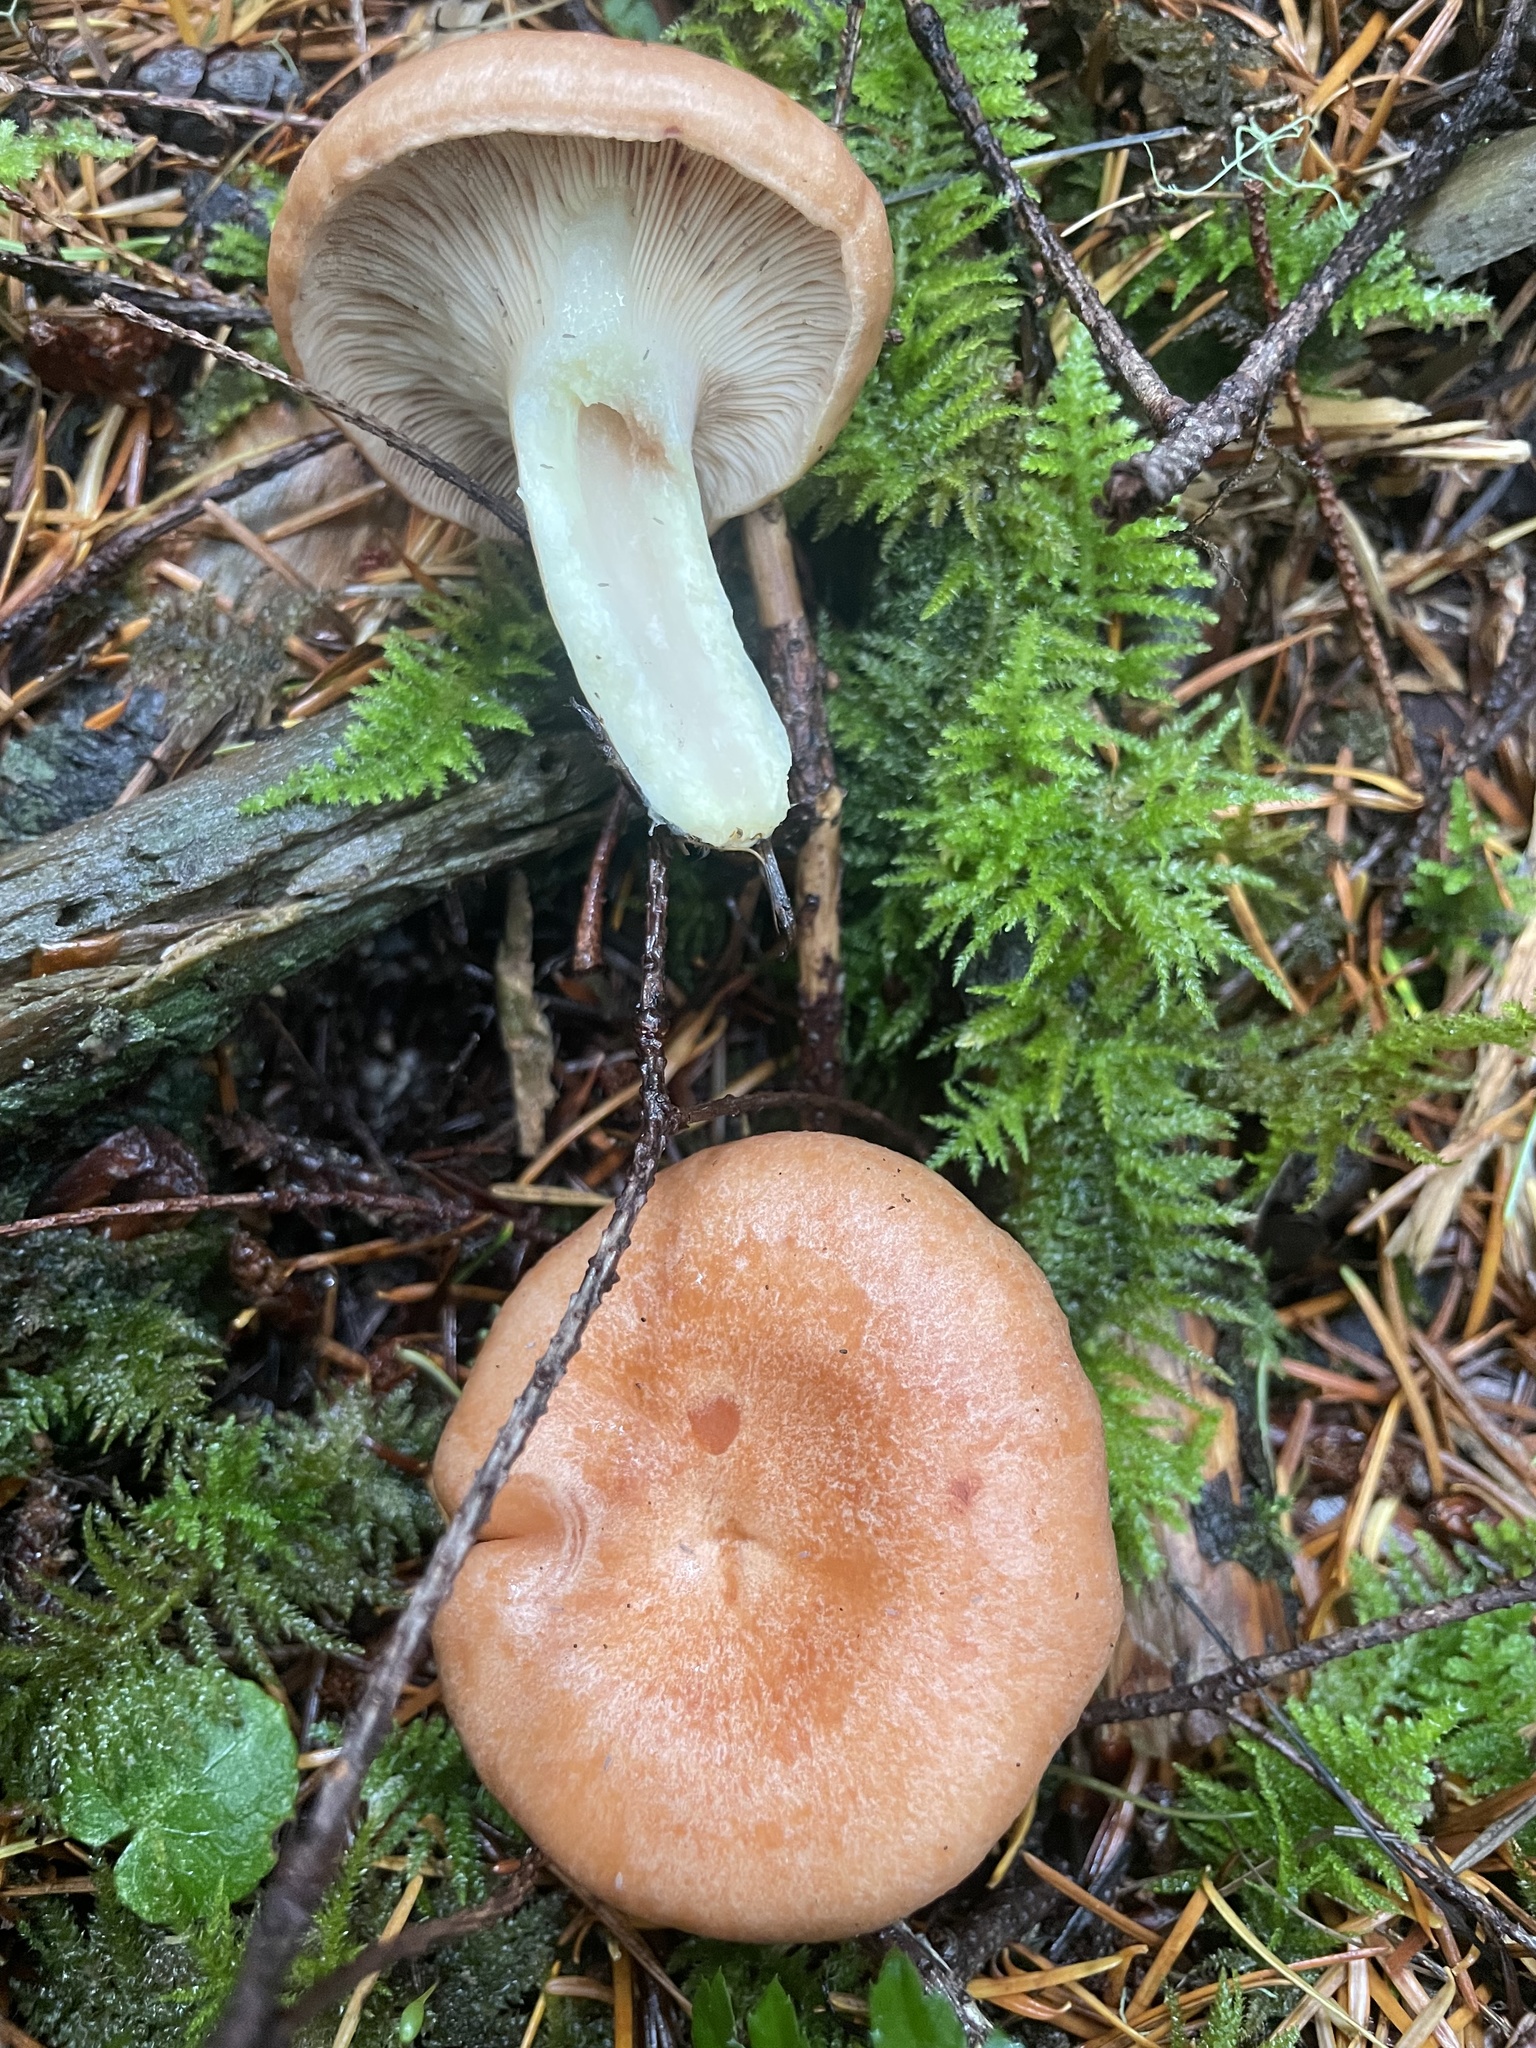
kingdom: Fungi
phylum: Basidiomycota
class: Agaricomycetes
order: Russulales
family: Russulaceae
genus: Lactarius
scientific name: Lactarius xanthogalactus
